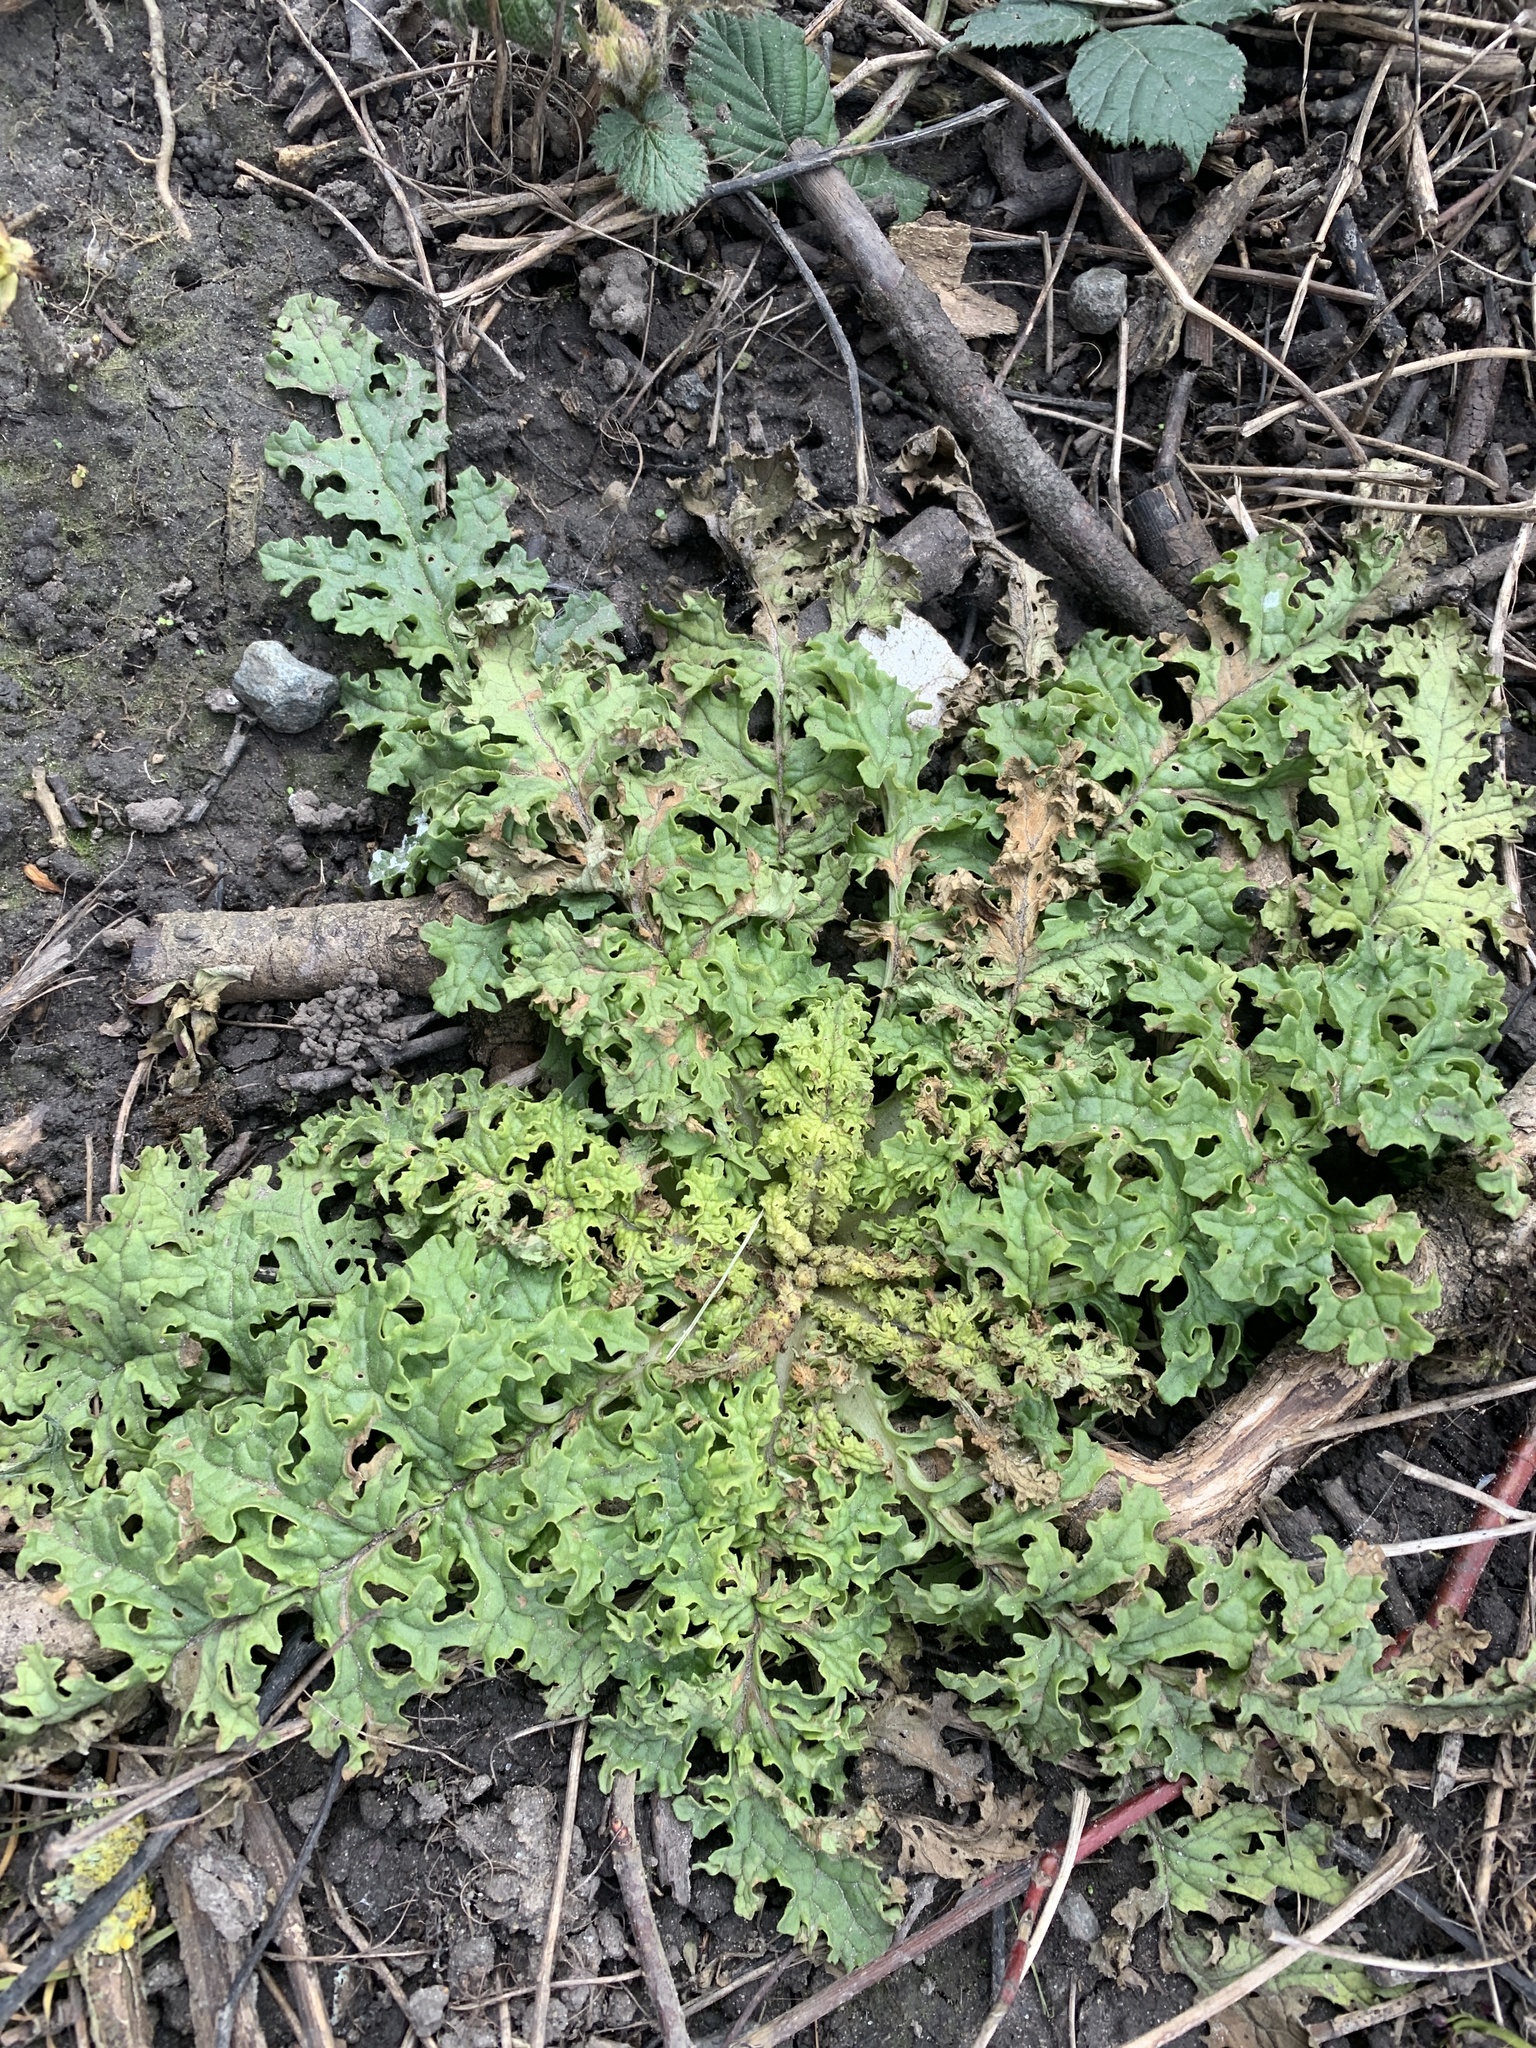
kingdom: Plantae
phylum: Tracheophyta
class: Magnoliopsida
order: Asterales
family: Asteraceae
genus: Jacobaea
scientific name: Jacobaea vulgaris
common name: Stinking willie
